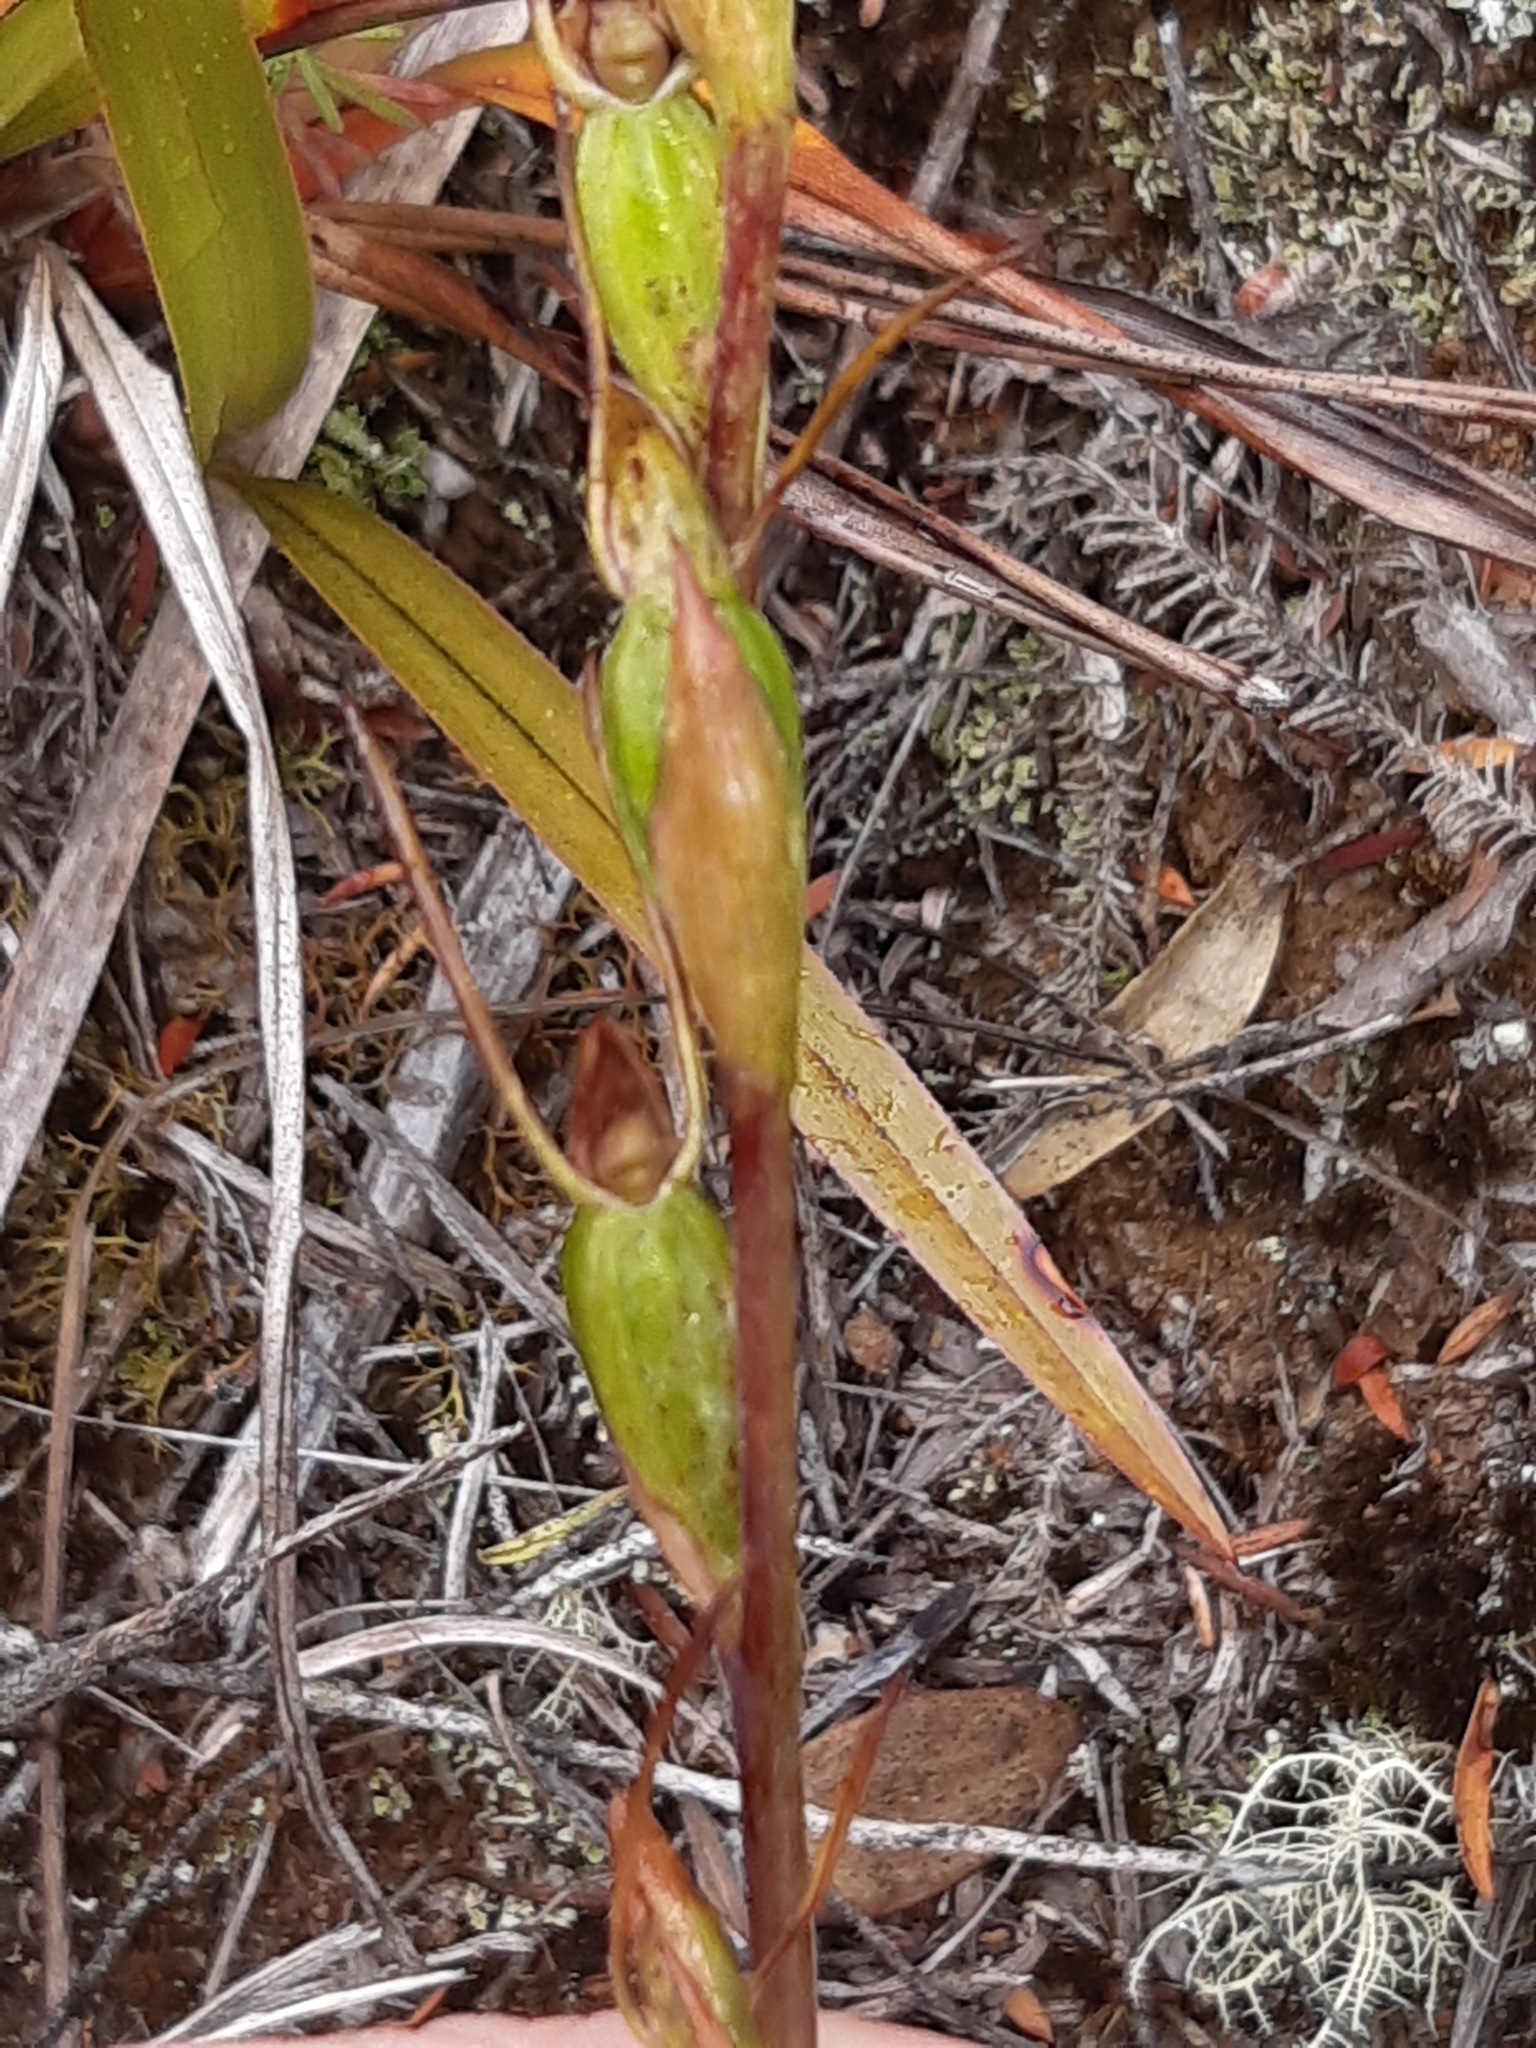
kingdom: Plantae
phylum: Tracheophyta
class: Liliopsida
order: Asparagales
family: Orchidaceae
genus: Orthoceras
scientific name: Orthoceras novae-zeelandiae
